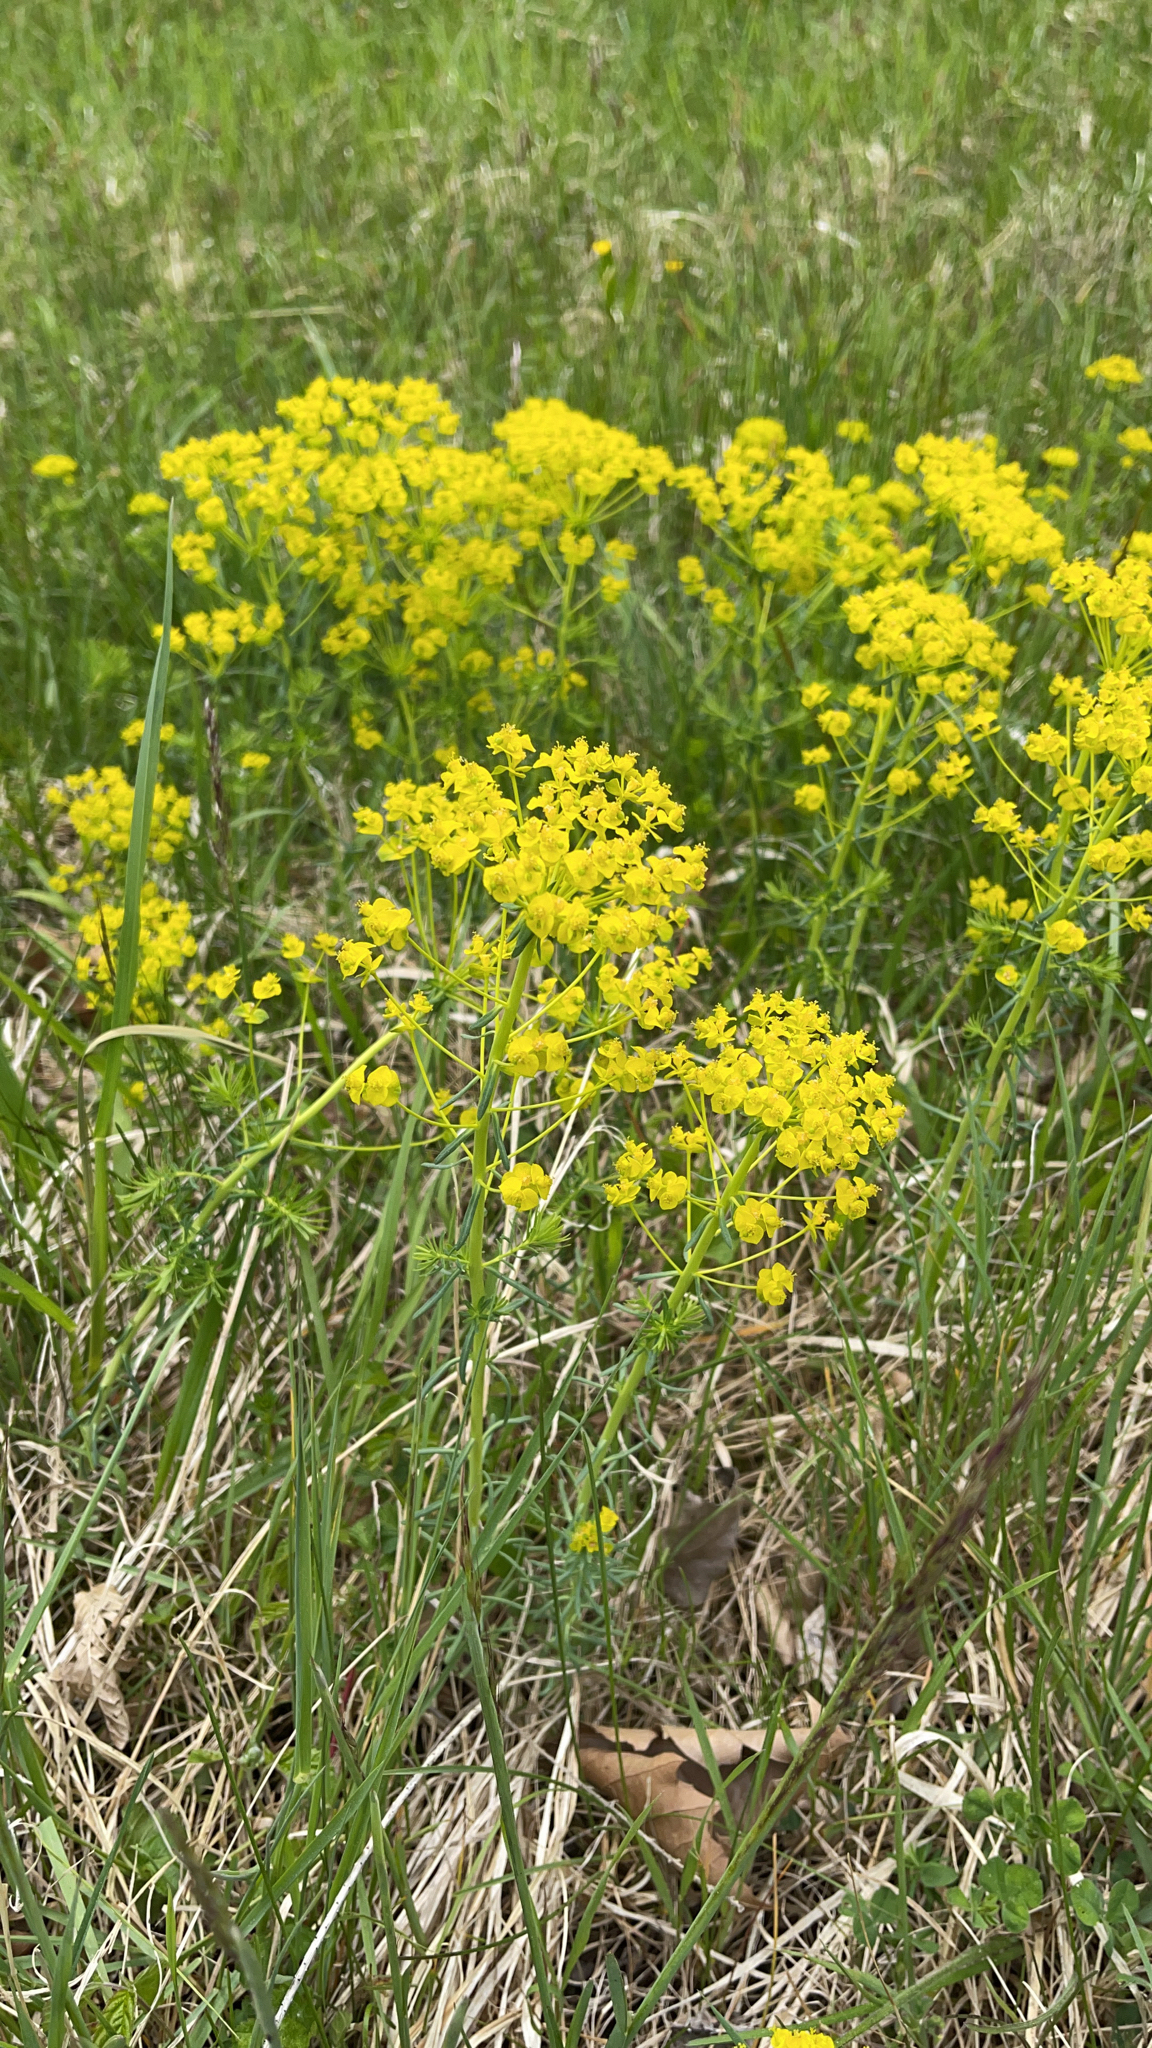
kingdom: Plantae
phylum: Tracheophyta
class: Magnoliopsida
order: Malpighiales
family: Euphorbiaceae
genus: Euphorbia
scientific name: Euphorbia cyparissias
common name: Cypress spurge
